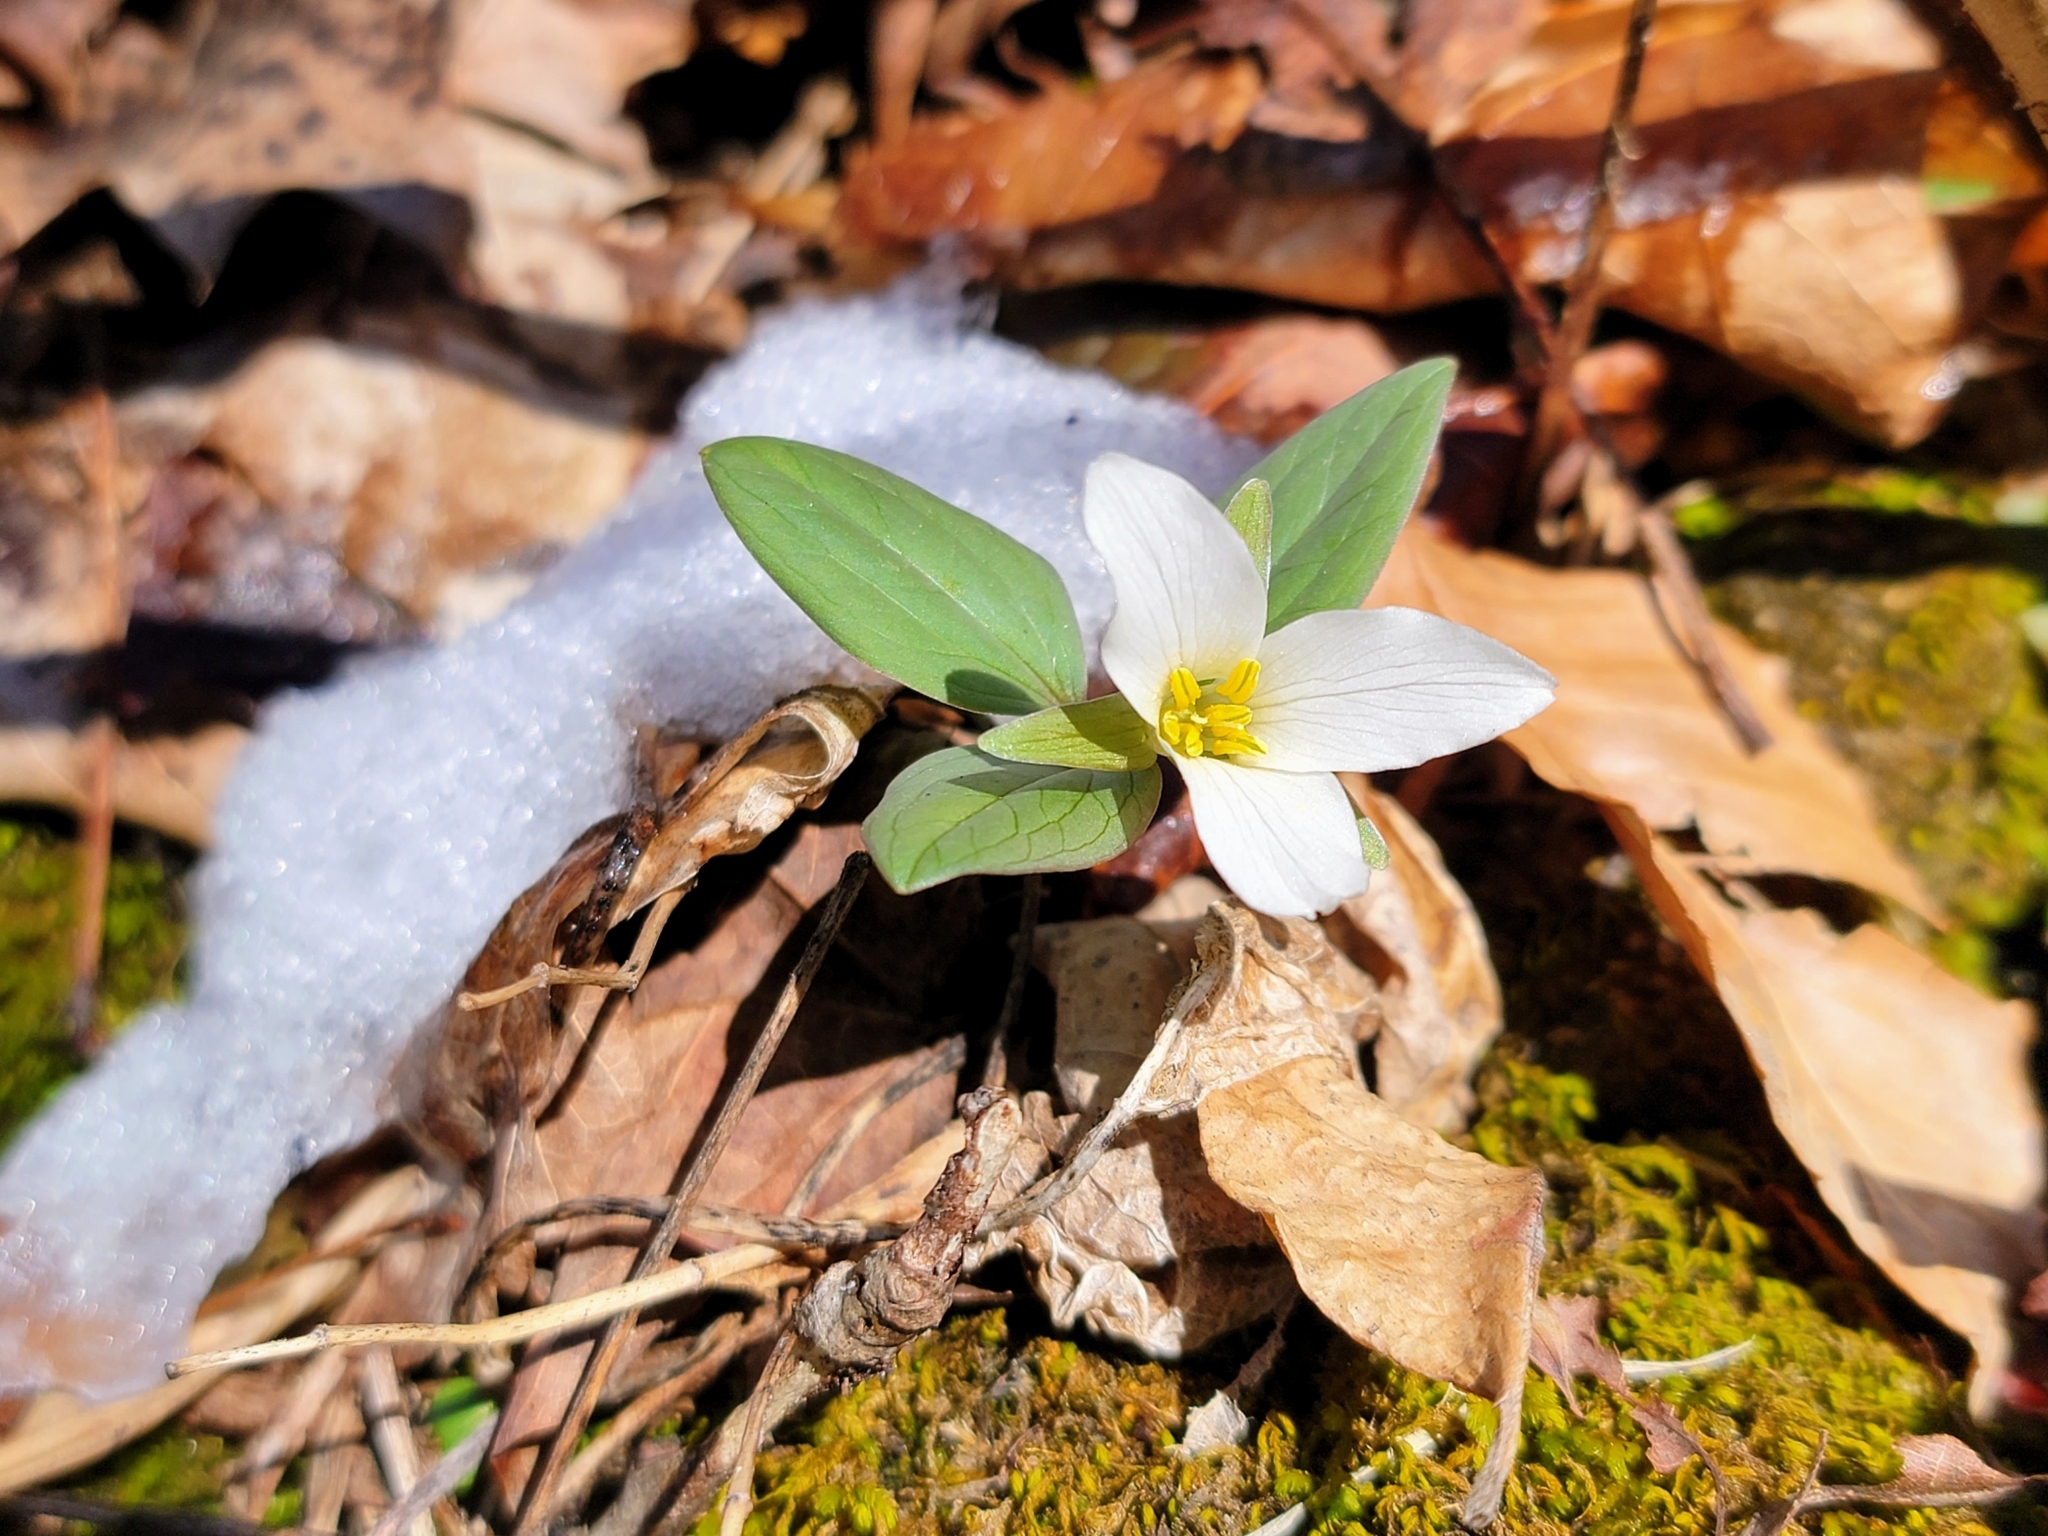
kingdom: Plantae
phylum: Tracheophyta
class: Liliopsida
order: Liliales
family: Melanthiaceae
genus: Trillium
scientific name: Trillium nivale
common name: Dwarf white trillium
